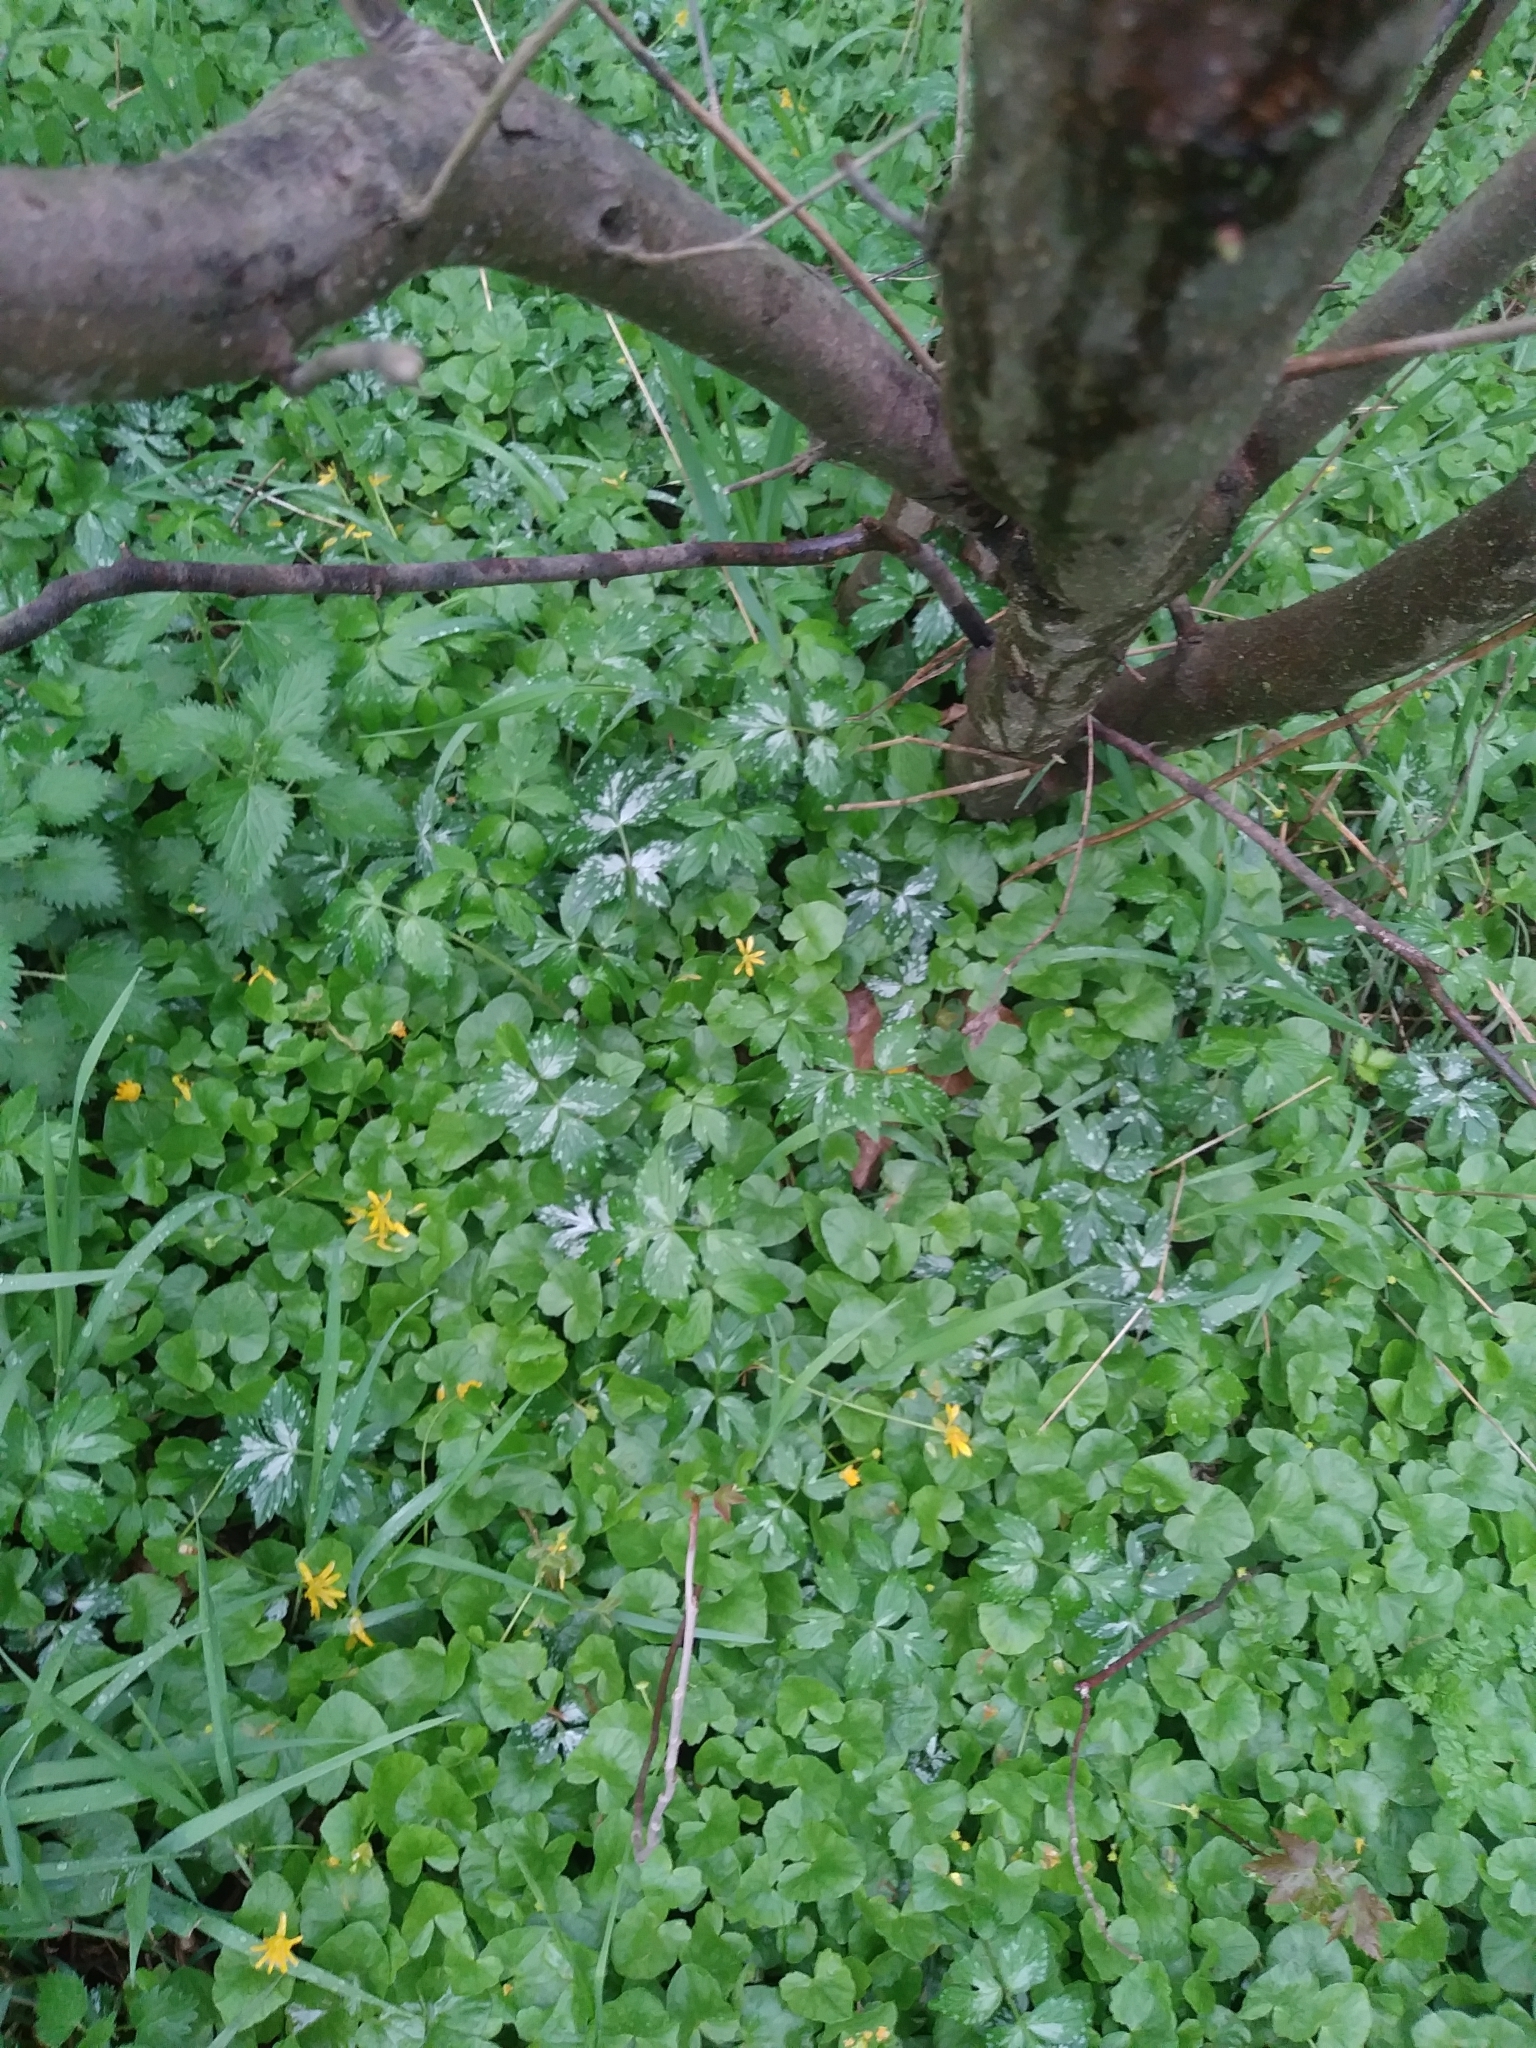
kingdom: Plantae
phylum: Tracheophyta
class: Magnoliopsida
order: Boraginales
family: Hydrophyllaceae
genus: Hydrophyllum
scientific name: Hydrophyllum virginianum
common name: Virginia waterleaf
